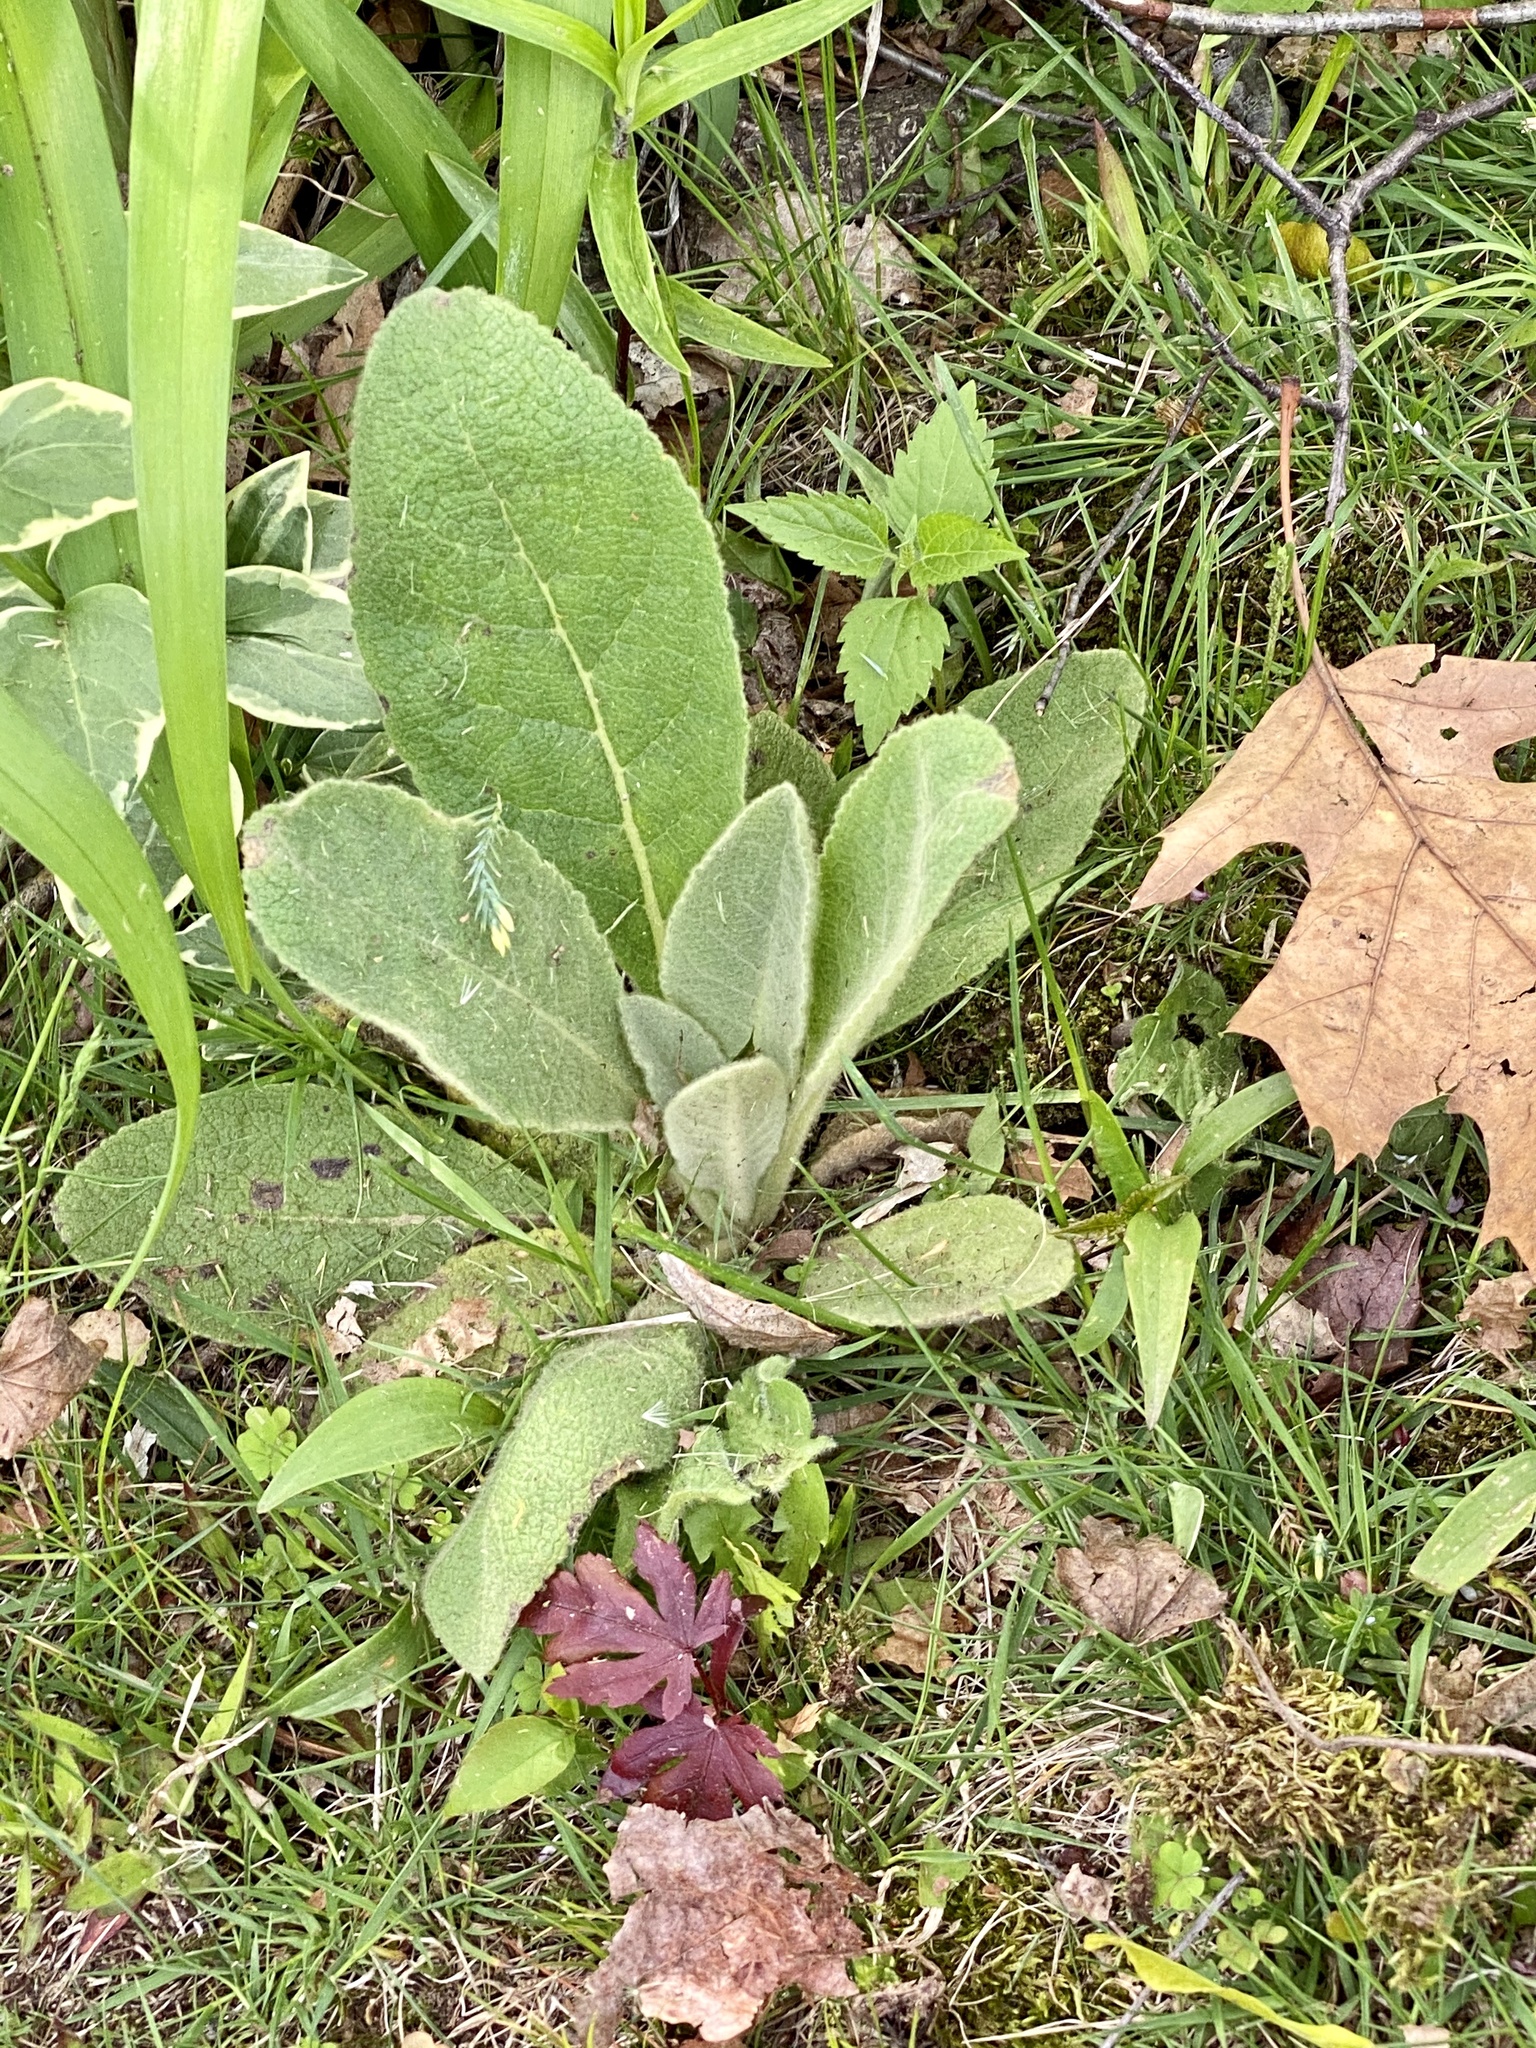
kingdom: Plantae
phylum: Tracheophyta
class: Magnoliopsida
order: Lamiales
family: Scrophulariaceae
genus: Verbascum
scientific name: Verbascum thapsus
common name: Common mullein
